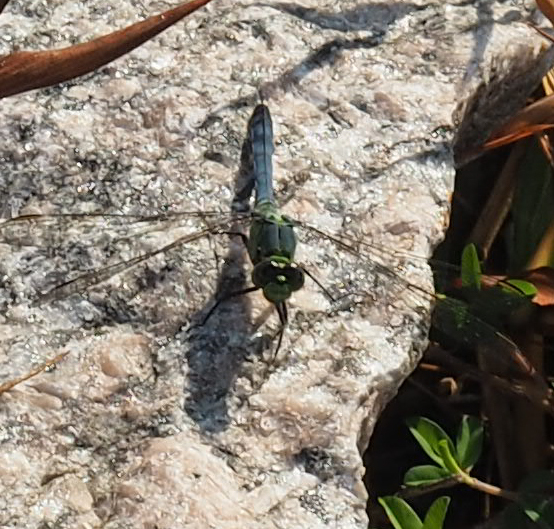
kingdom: Animalia
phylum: Arthropoda
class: Insecta
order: Odonata
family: Libellulidae
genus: Erythemis
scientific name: Erythemis simplicicollis
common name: Eastern pondhawk
